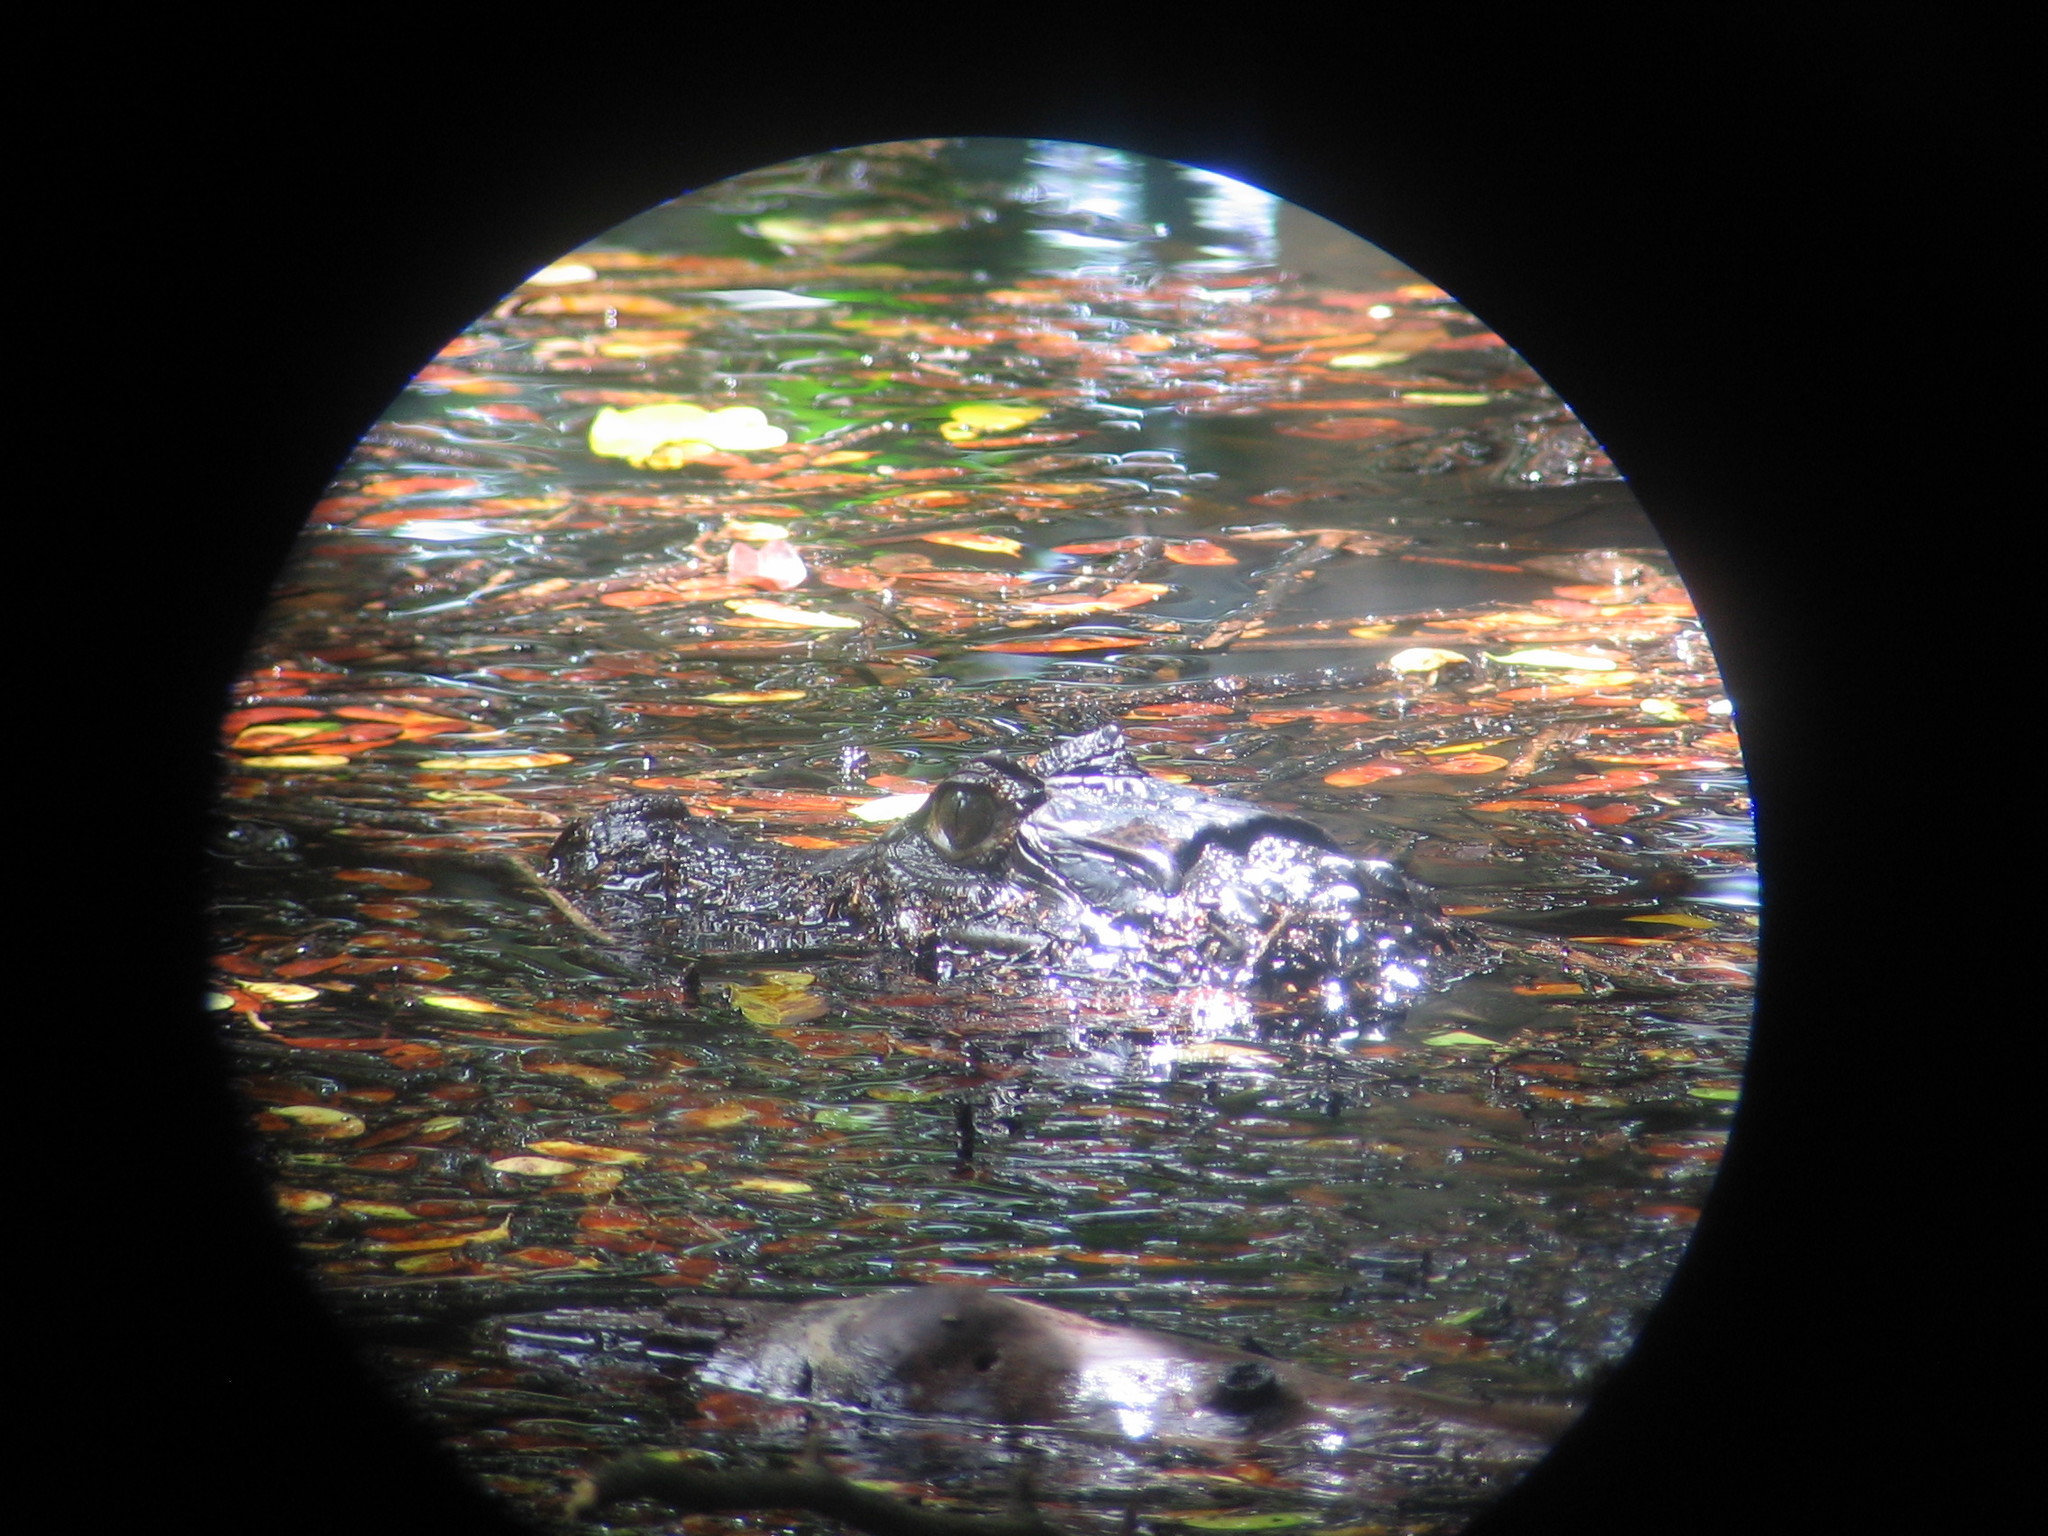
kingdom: Animalia
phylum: Chordata
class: Crocodylia
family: Alligatoridae
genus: Caiman
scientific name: Caiman crocodilus
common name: Common caiman
